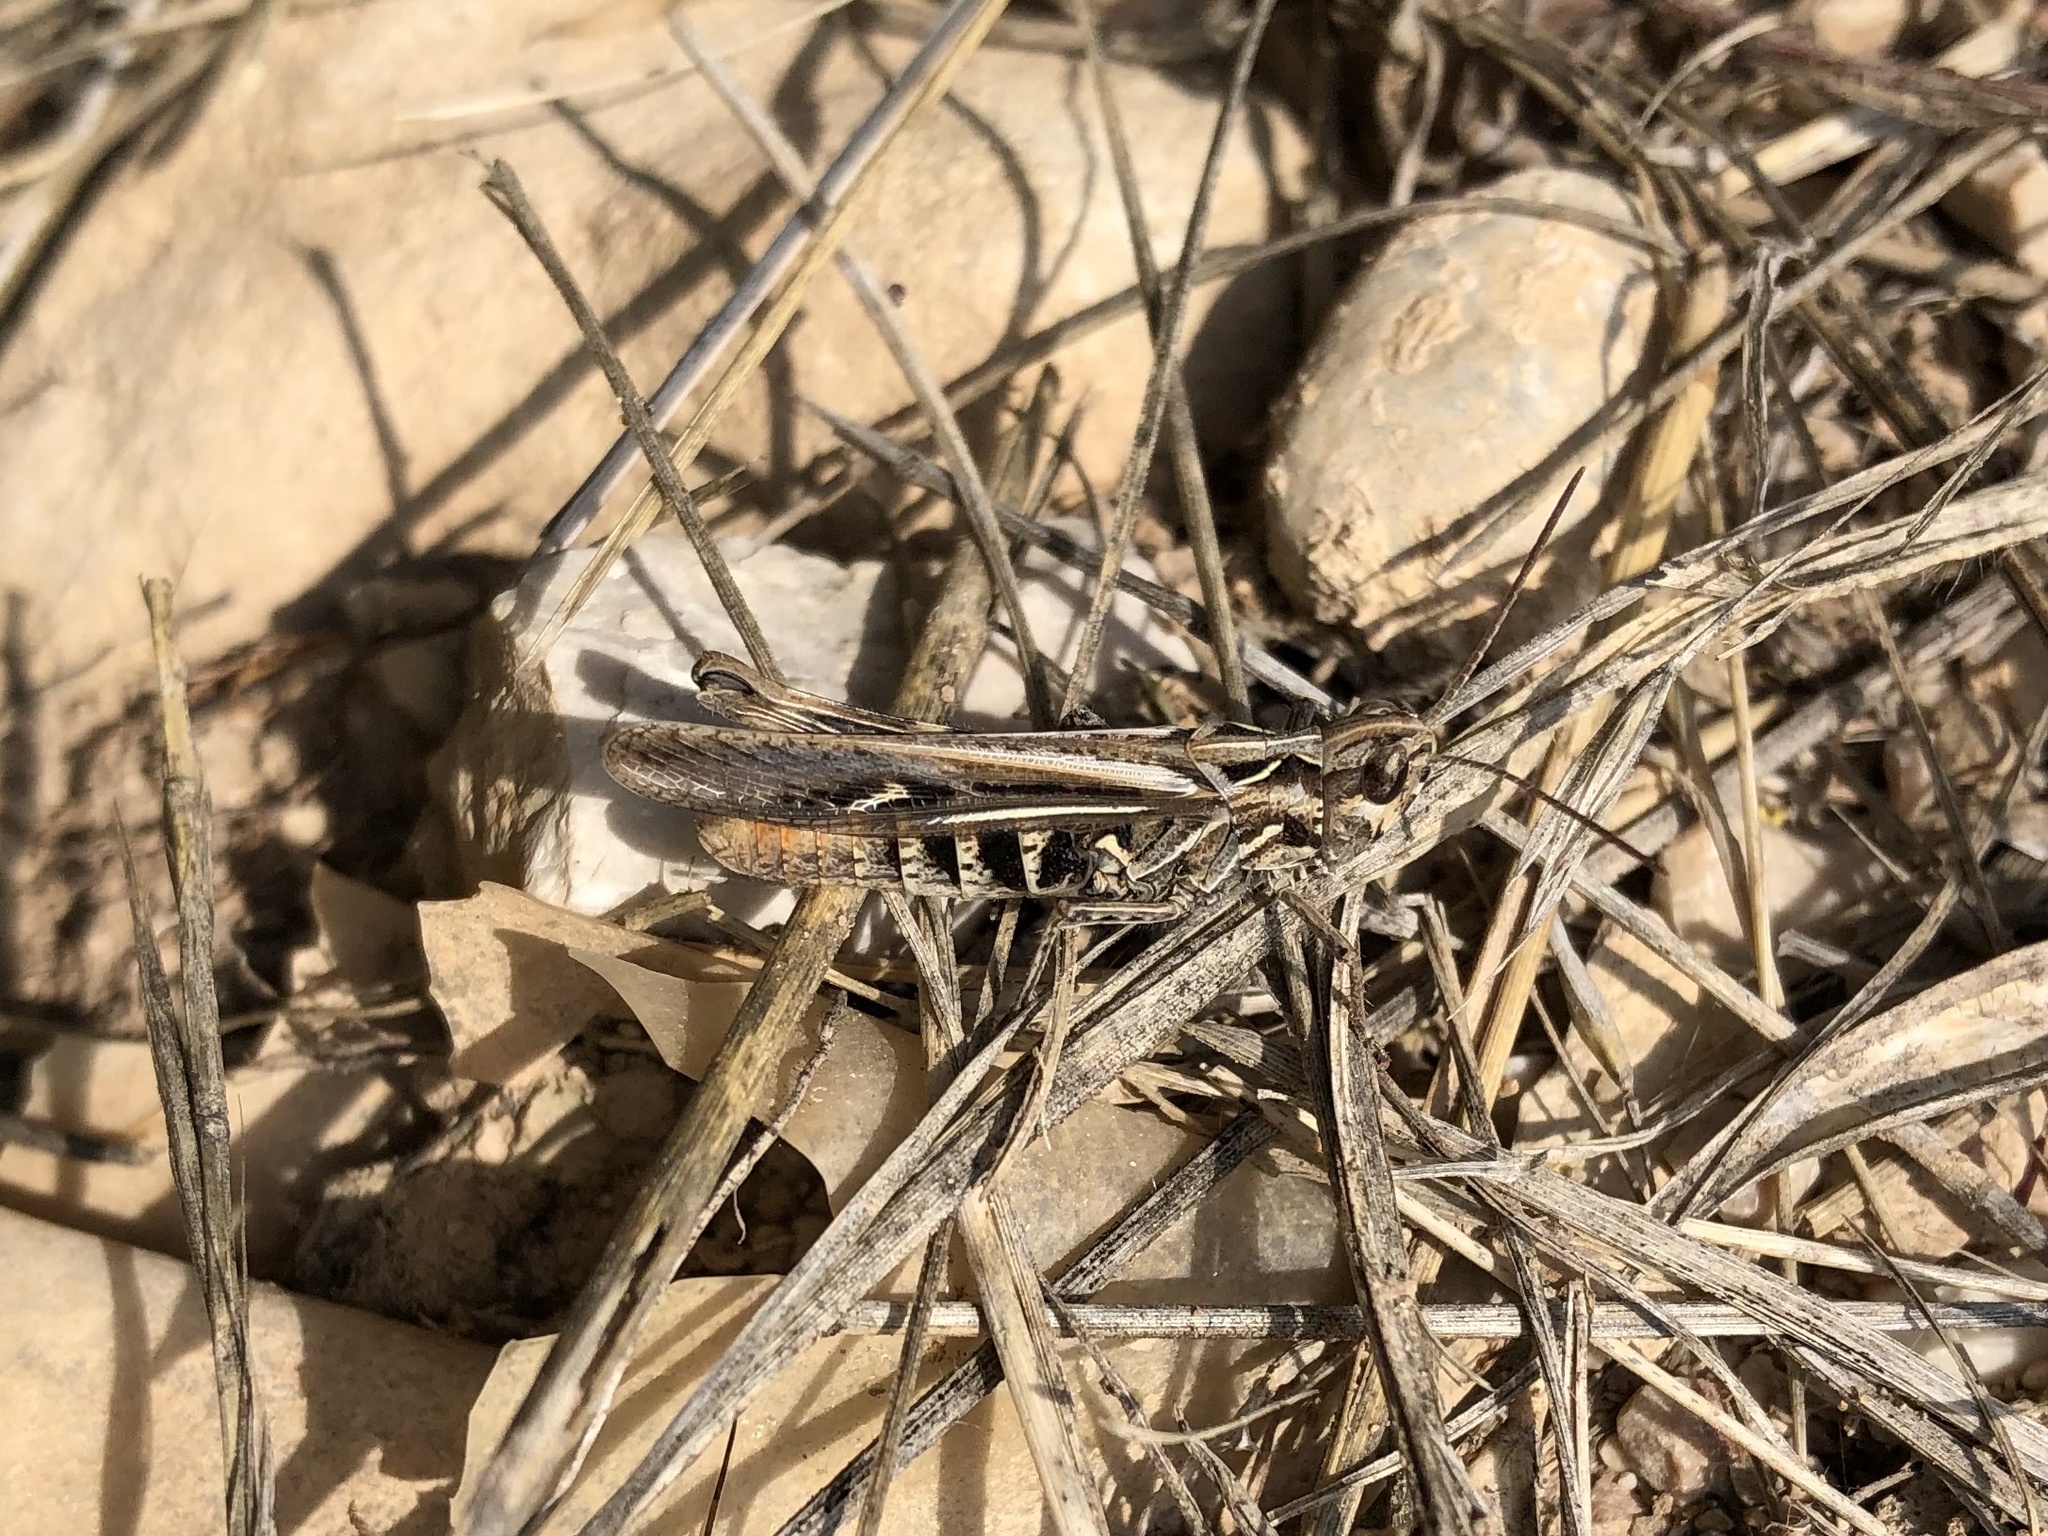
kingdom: Animalia
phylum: Arthropoda
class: Insecta
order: Orthoptera
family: Acrididae
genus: Chorthippus
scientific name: Chorthippus maritimus
